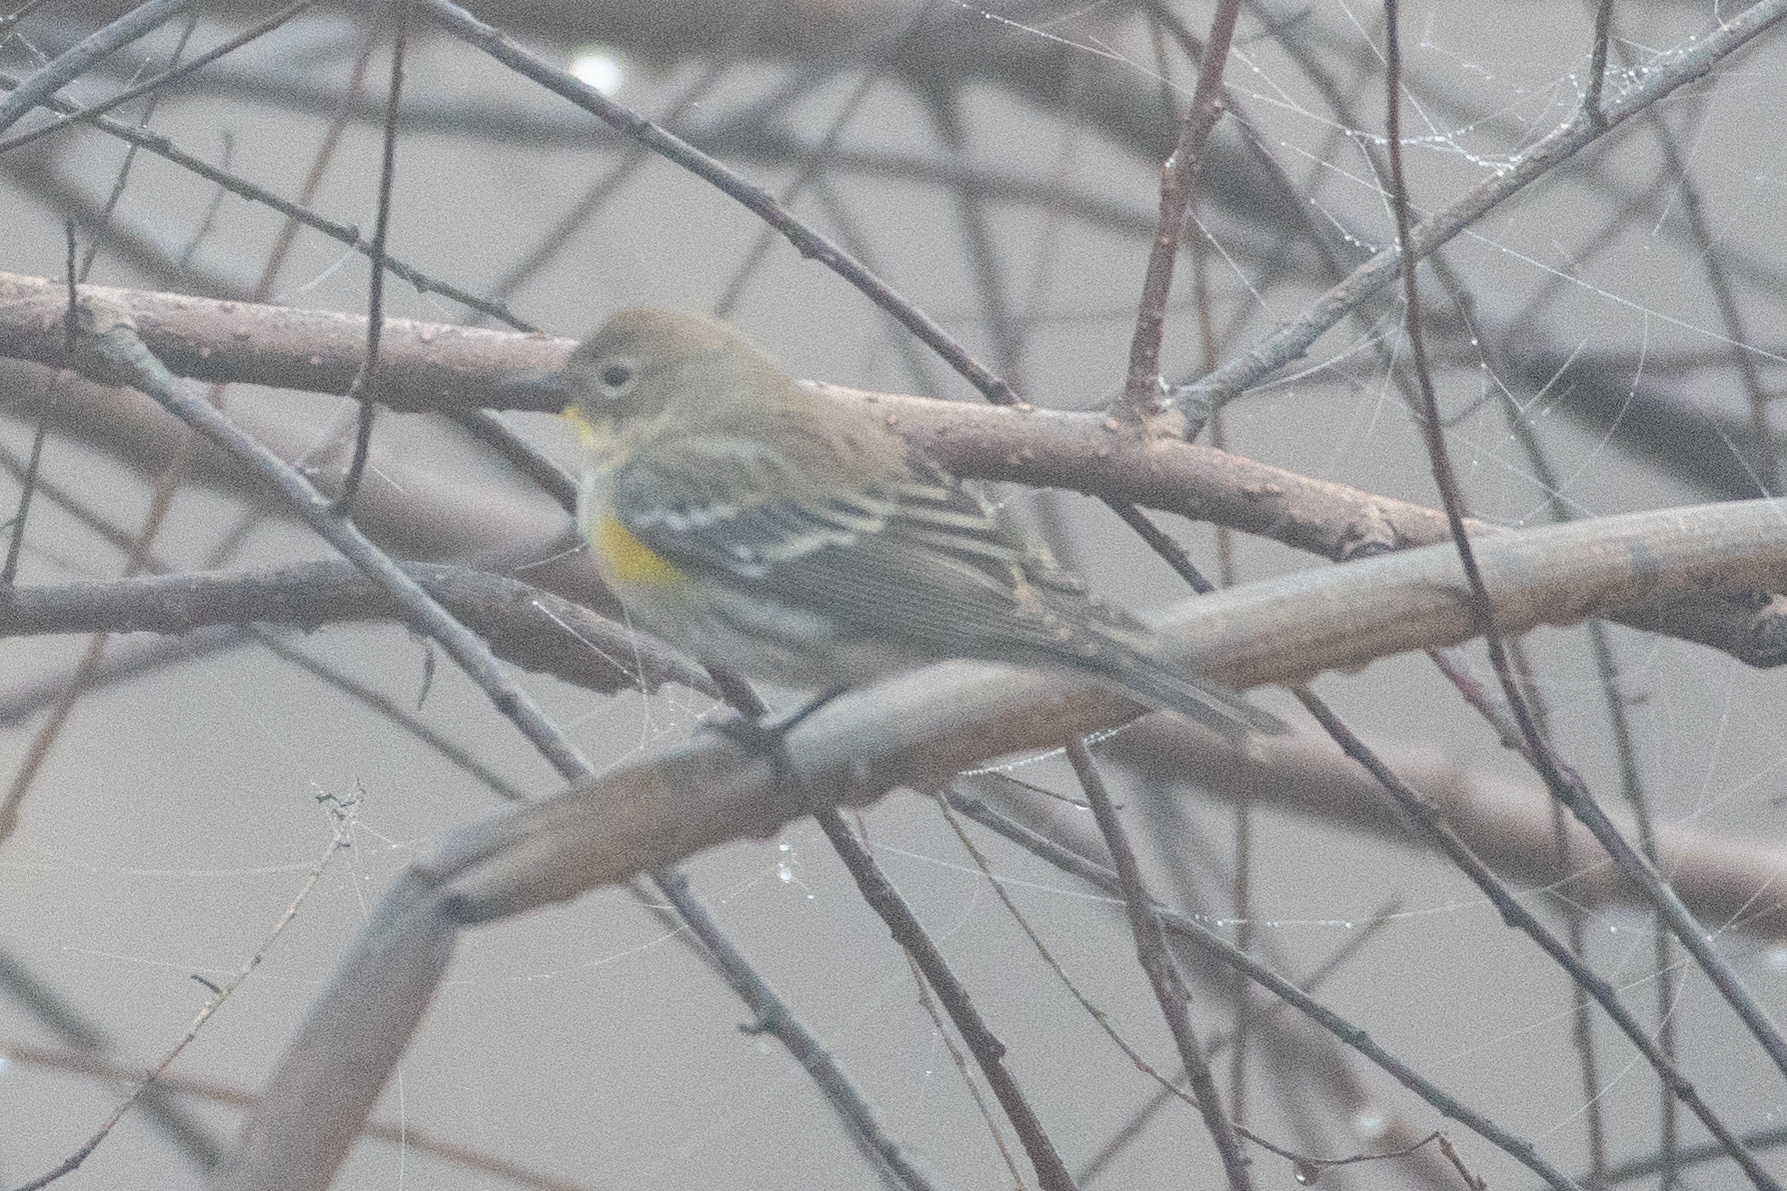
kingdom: Animalia
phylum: Chordata
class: Aves
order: Passeriformes
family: Parulidae
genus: Setophaga
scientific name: Setophaga coronata
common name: Myrtle warbler
